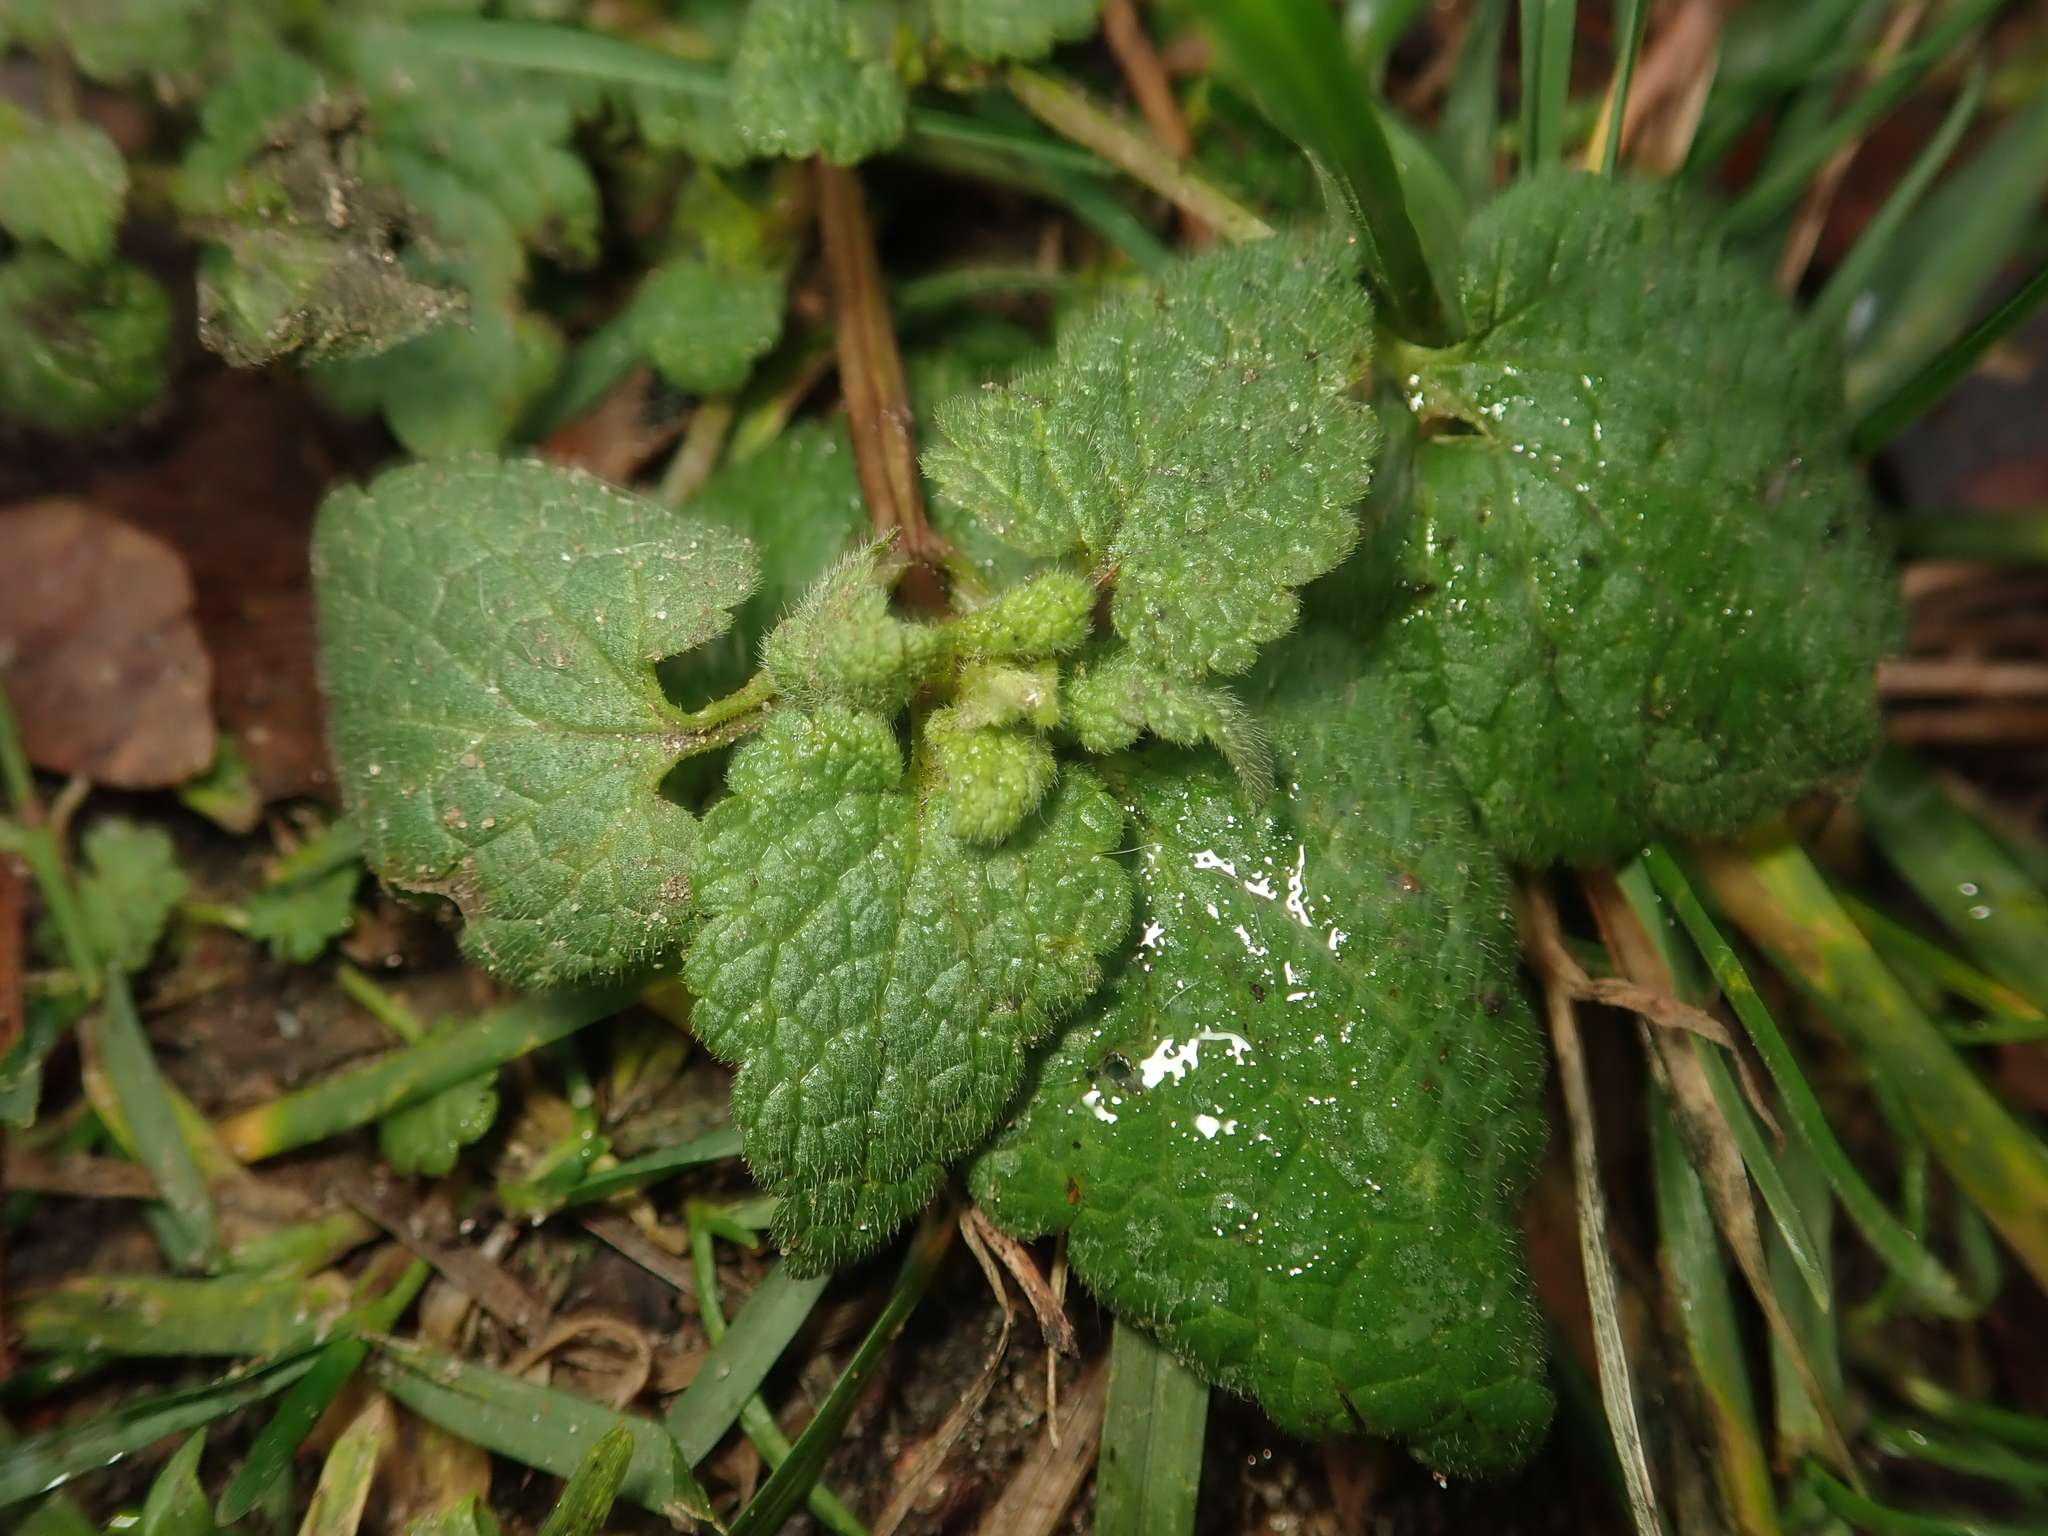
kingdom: Plantae
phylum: Tracheophyta
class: Magnoliopsida
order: Lamiales
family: Lamiaceae
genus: Lamium
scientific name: Lamium purpureum
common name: Red dead-nettle
